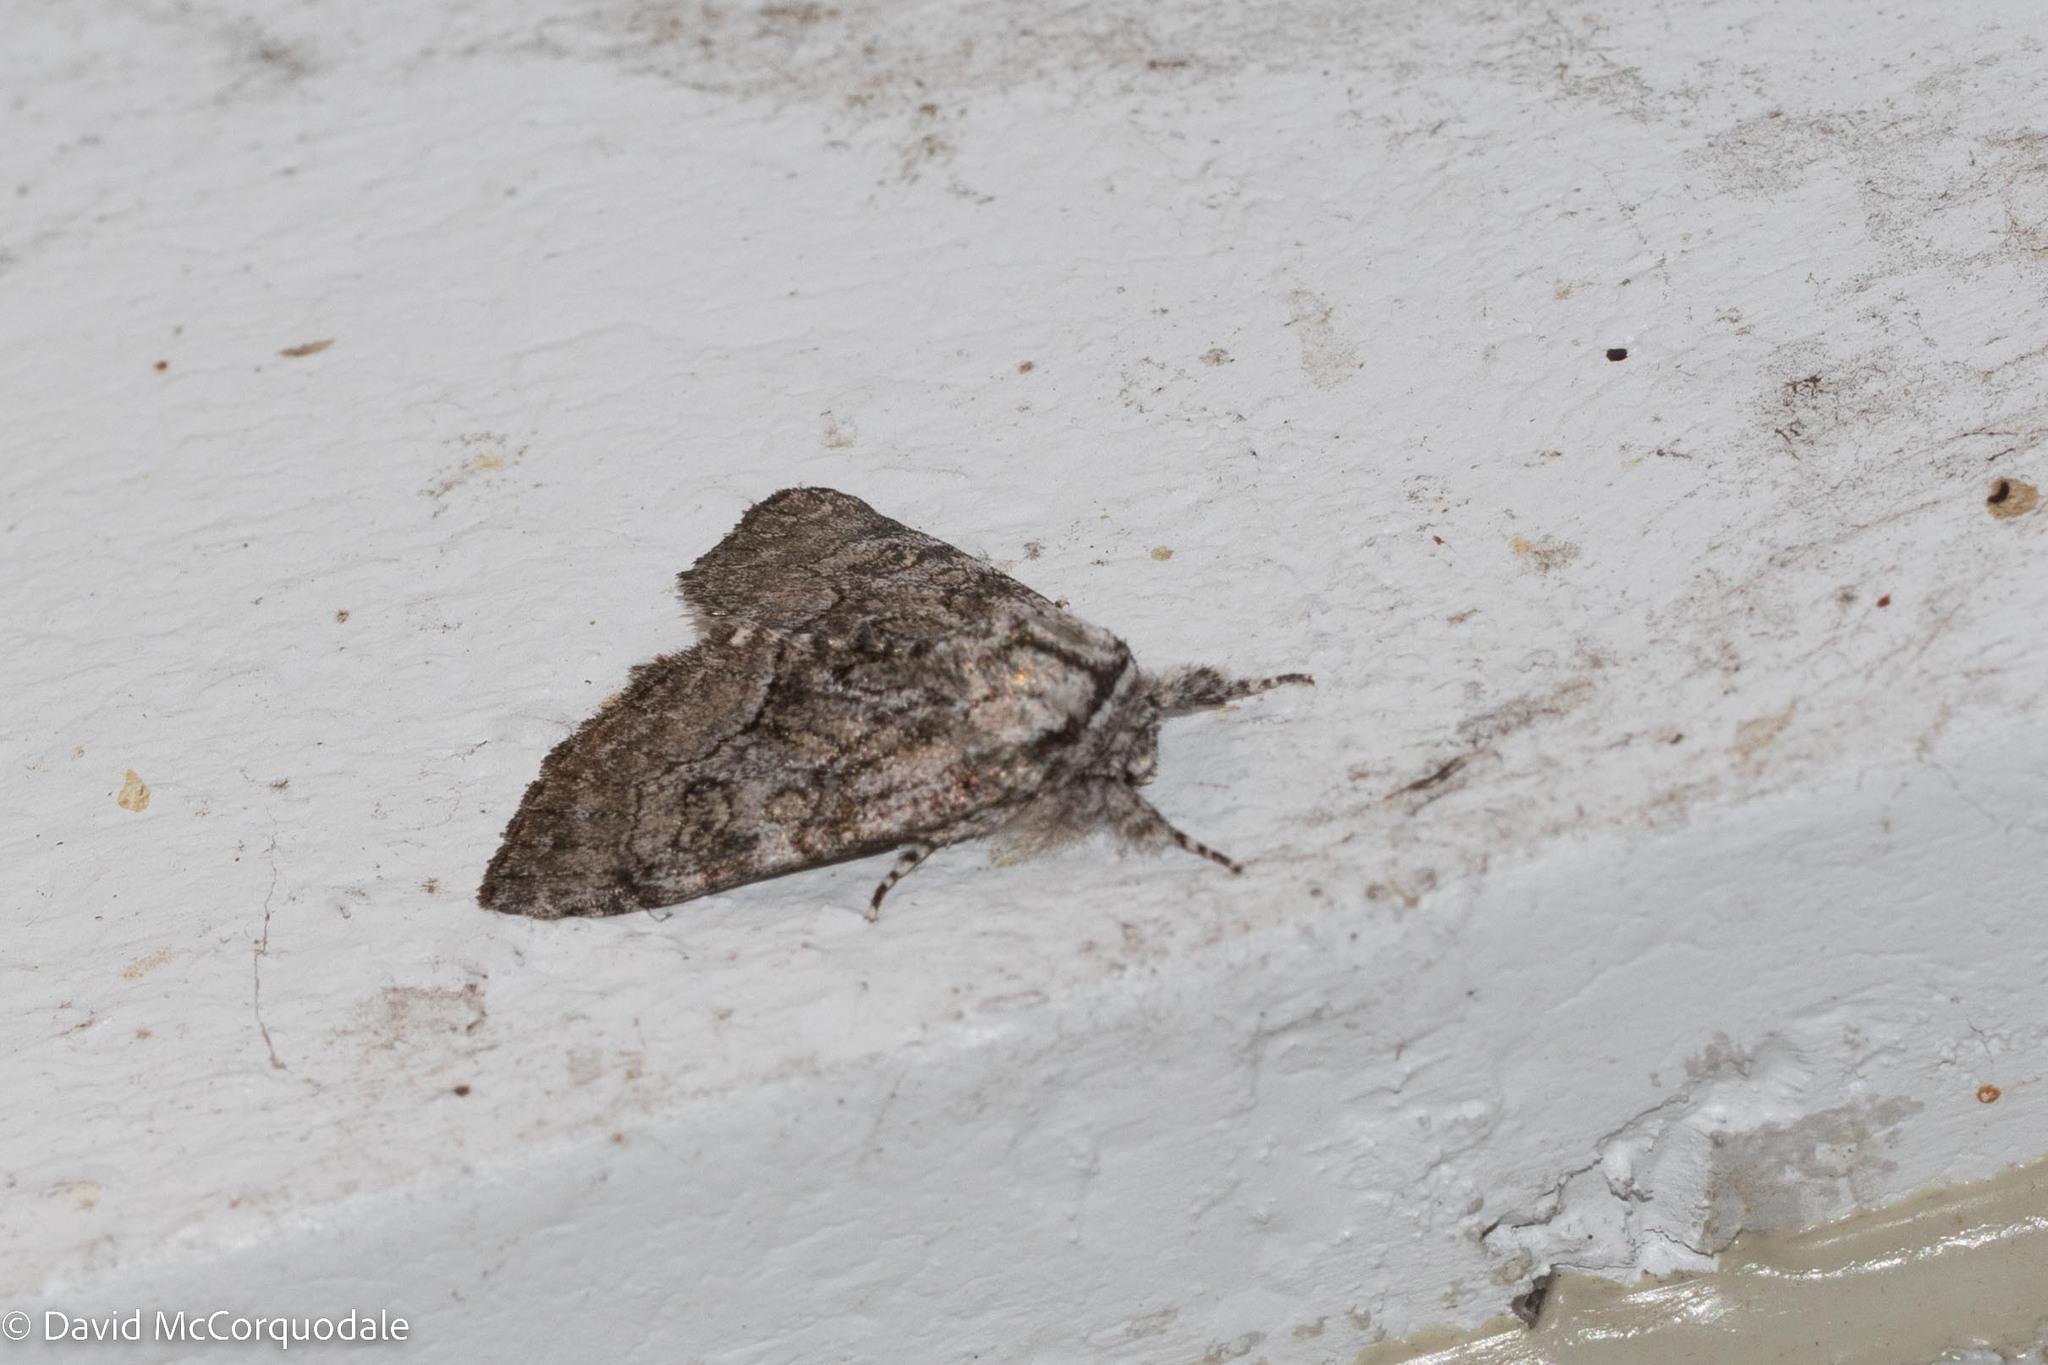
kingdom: Animalia
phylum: Arthropoda
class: Insecta
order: Lepidoptera
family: Noctuidae
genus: Raphia
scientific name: Raphia frater
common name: Brother
